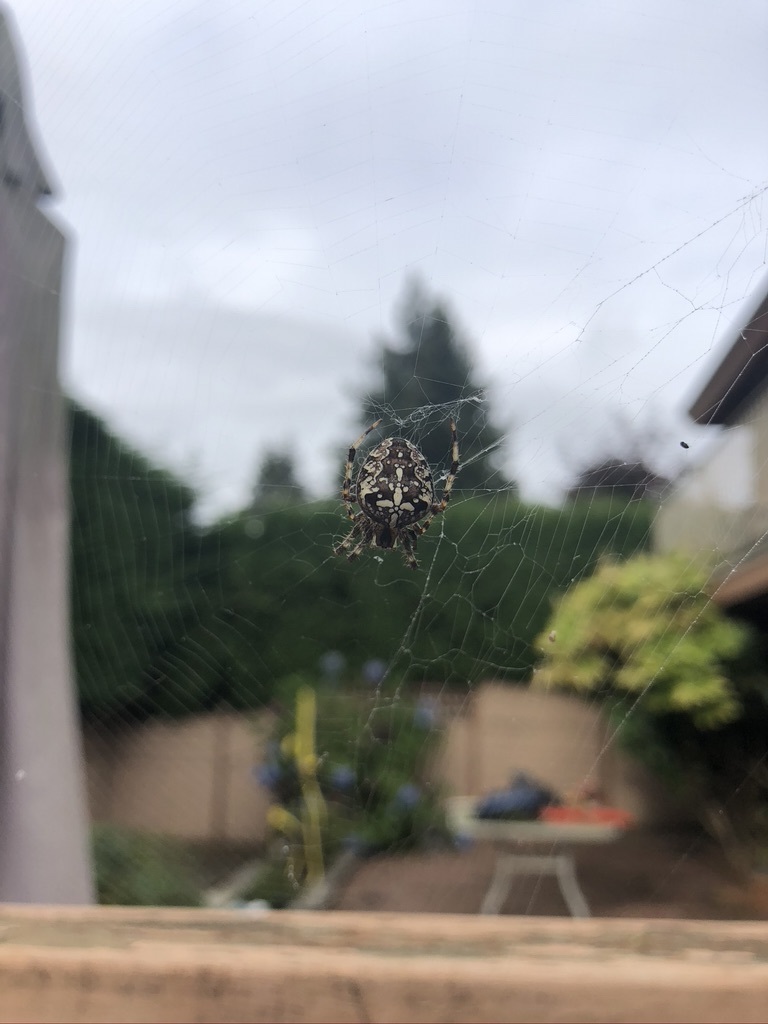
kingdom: Animalia
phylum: Arthropoda
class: Arachnida
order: Araneae
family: Araneidae
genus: Araneus
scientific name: Araneus diadematus
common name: Cross orbweaver
